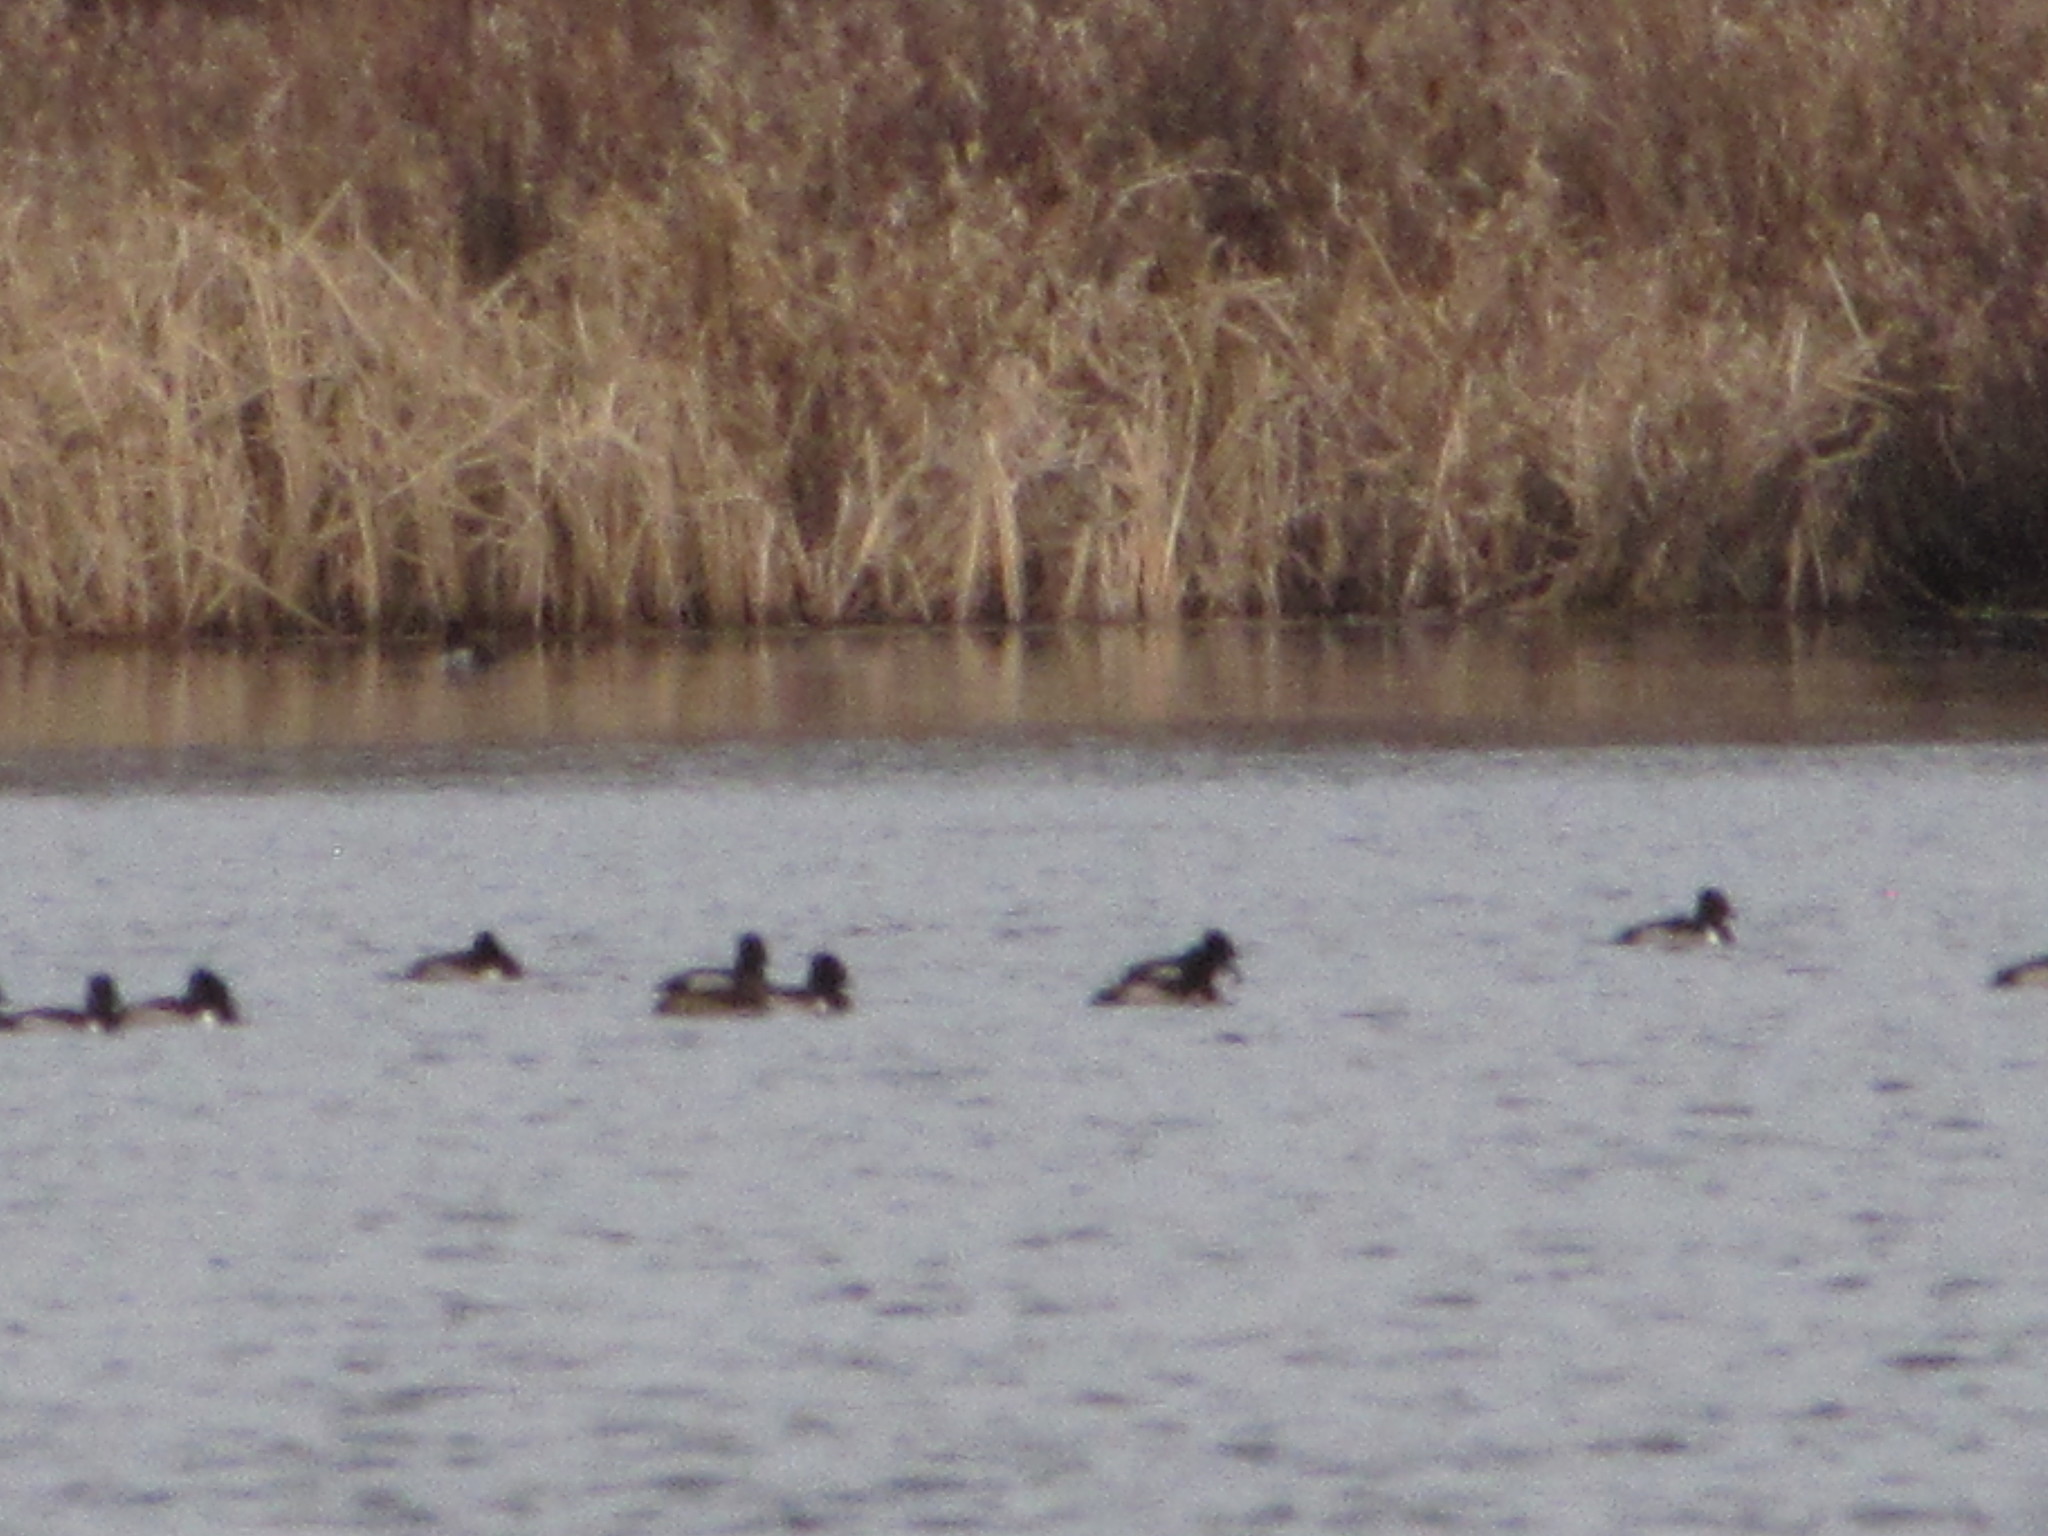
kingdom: Animalia
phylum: Chordata
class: Aves
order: Anseriformes
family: Anatidae
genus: Aythya
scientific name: Aythya collaris
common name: Ring-necked duck
